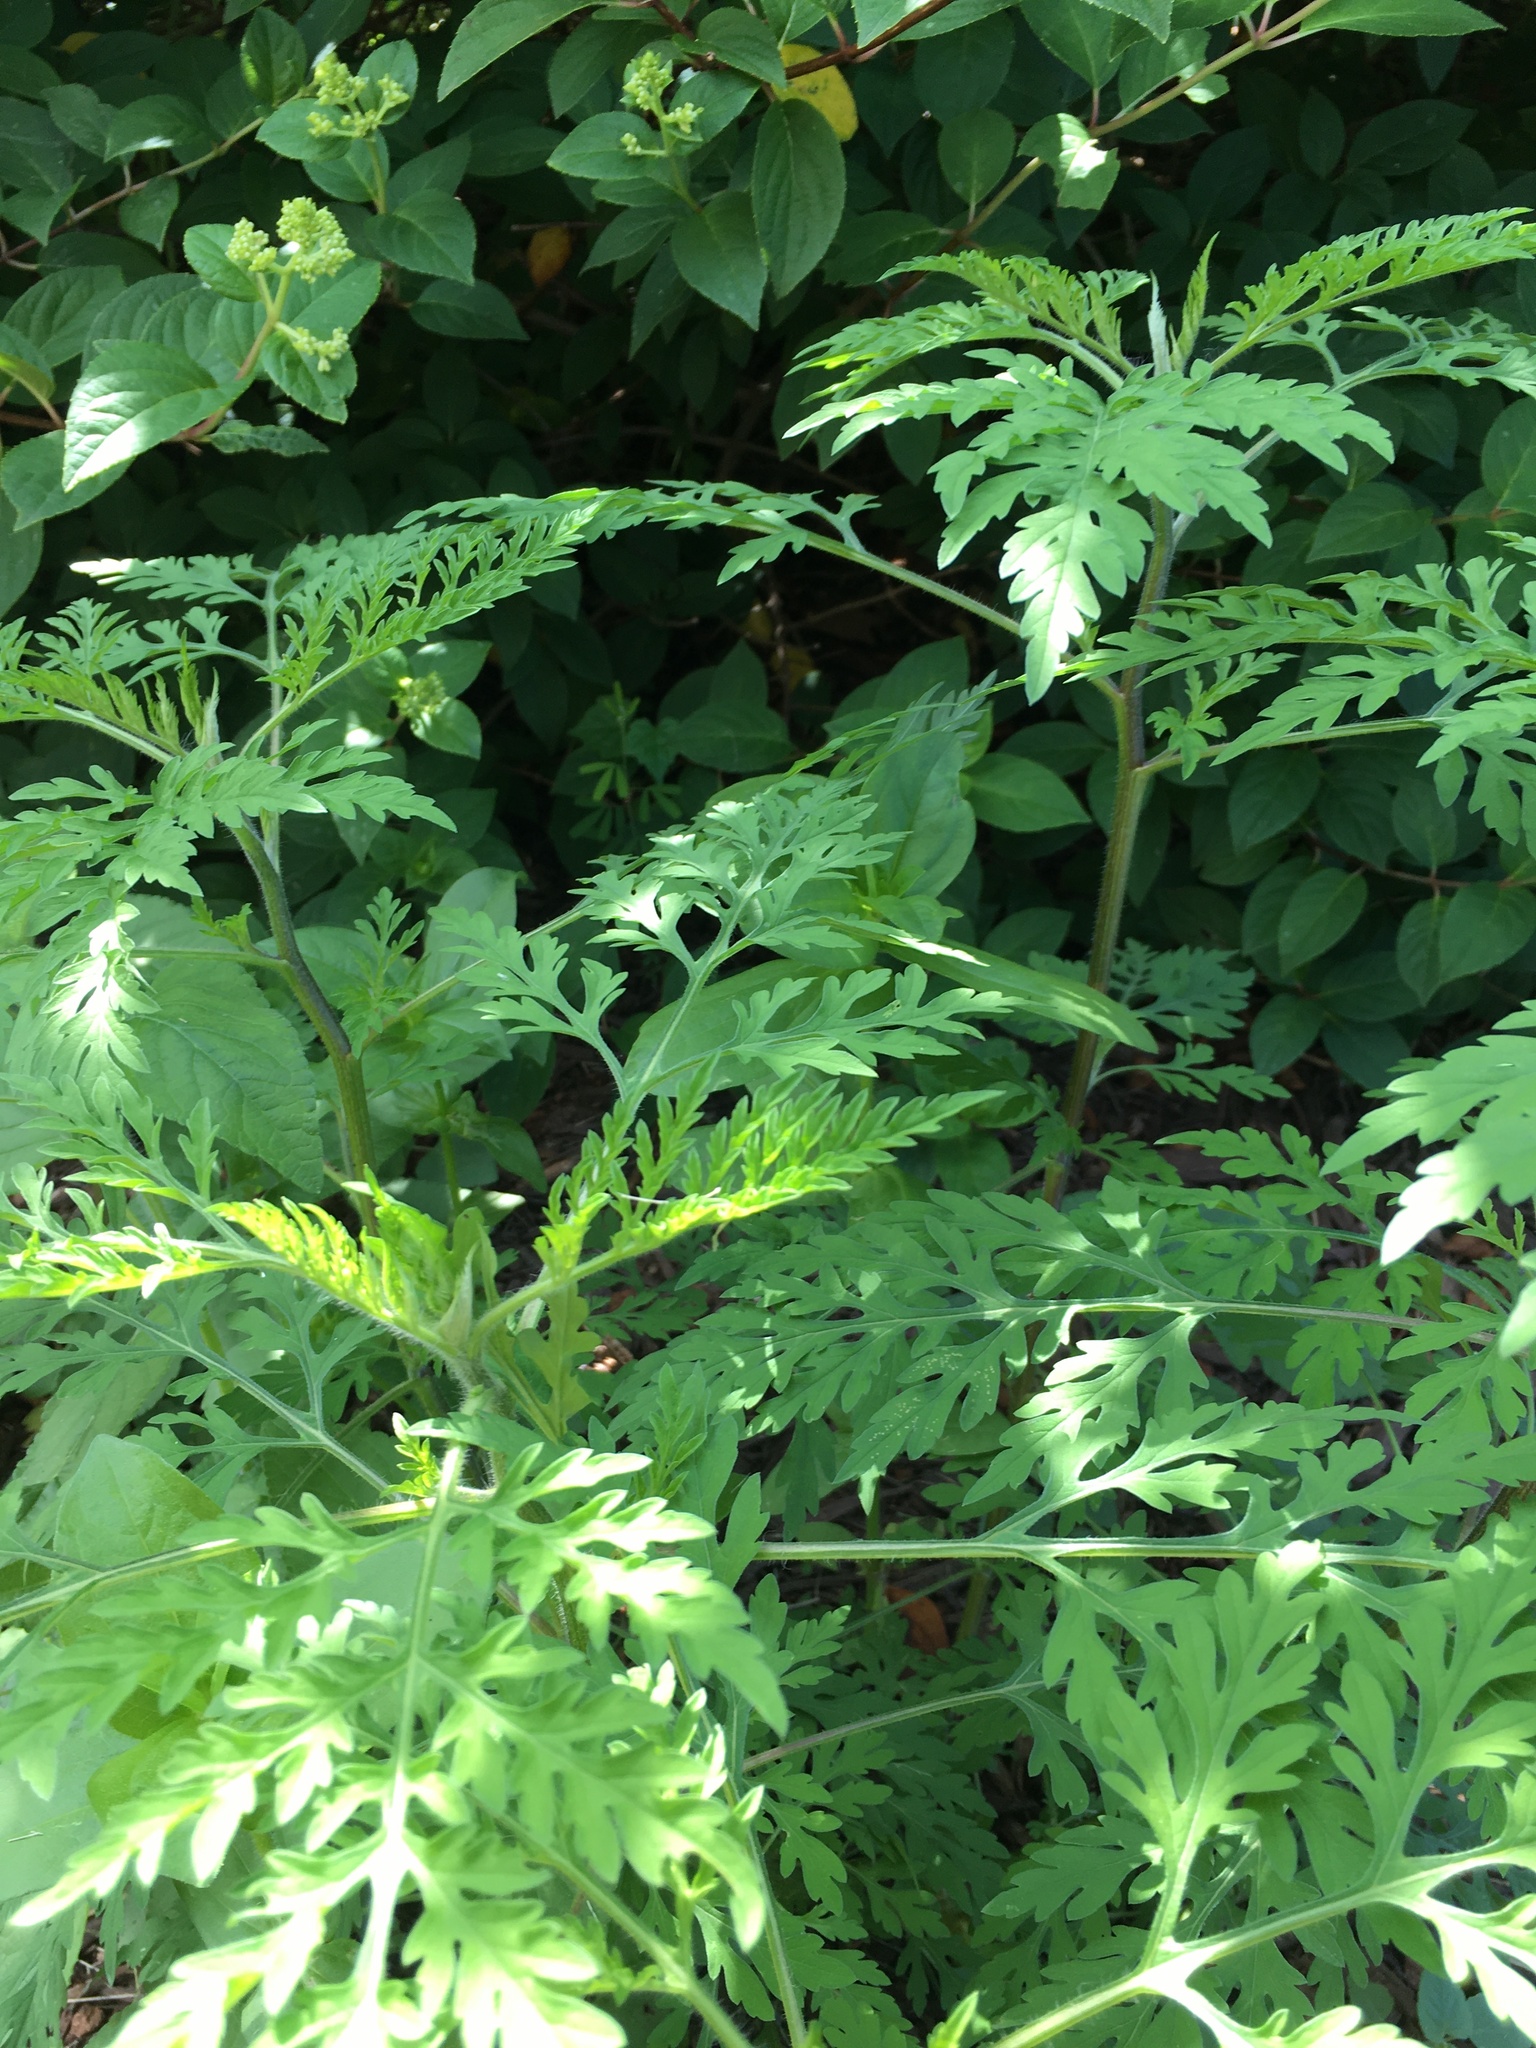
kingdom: Plantae
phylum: Tracheophyta
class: Magnoliopsida
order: Asterales
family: Asteraceae
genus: Ambrosia
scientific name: Ambrosia artemisiifolia
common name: Annual ragweed
